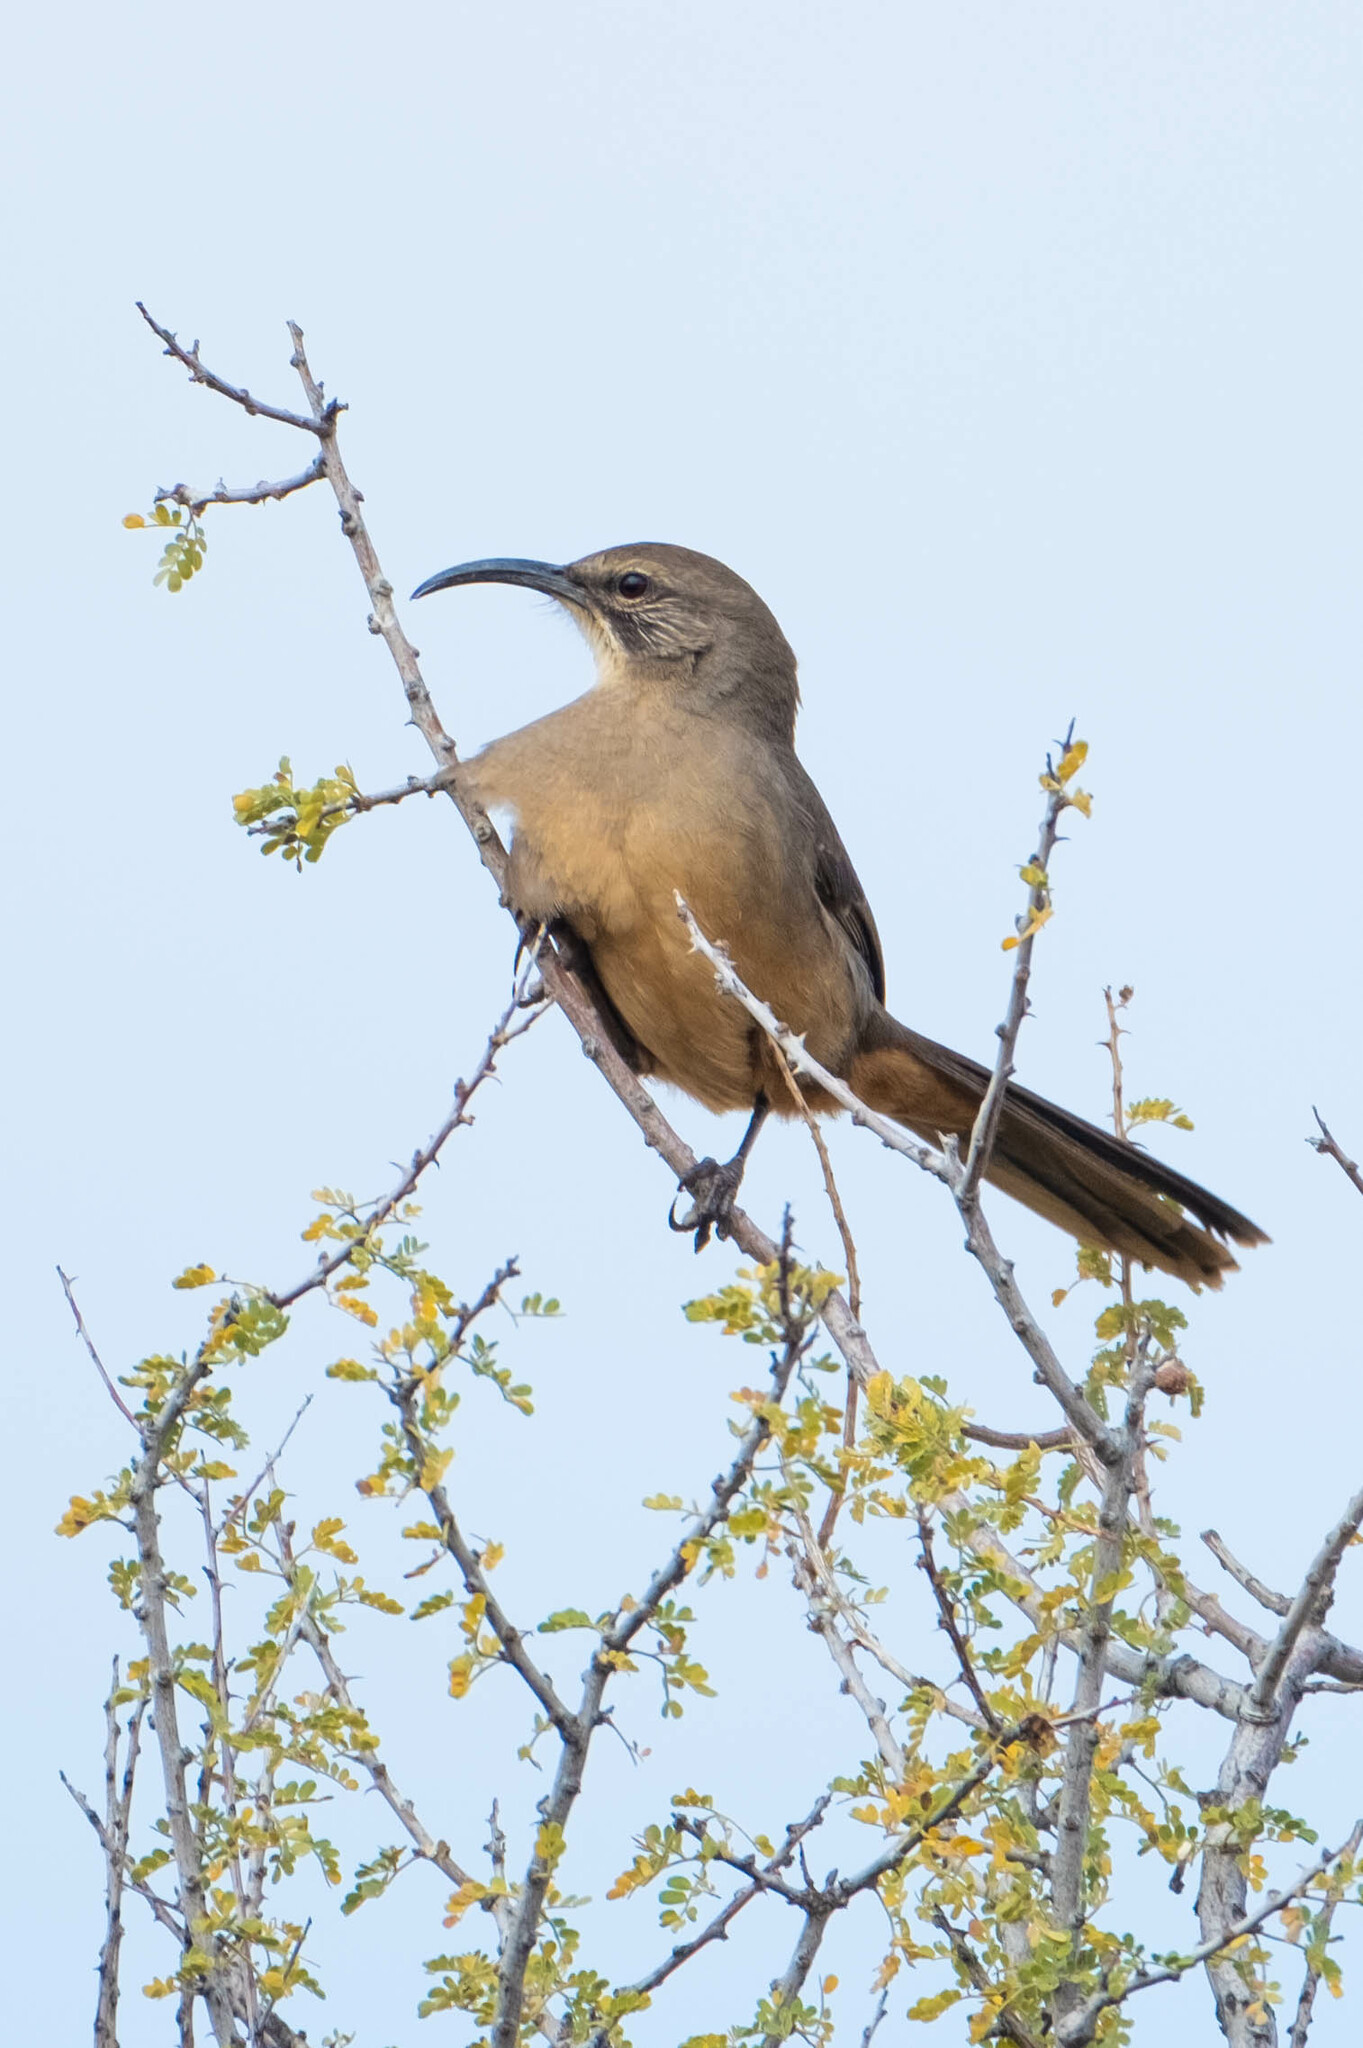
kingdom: Animalia
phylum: Chordata
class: Aves
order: Passeriformes
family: Mimidae
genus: Toxostoma
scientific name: Toxostoma redivivum
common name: California thrasher
